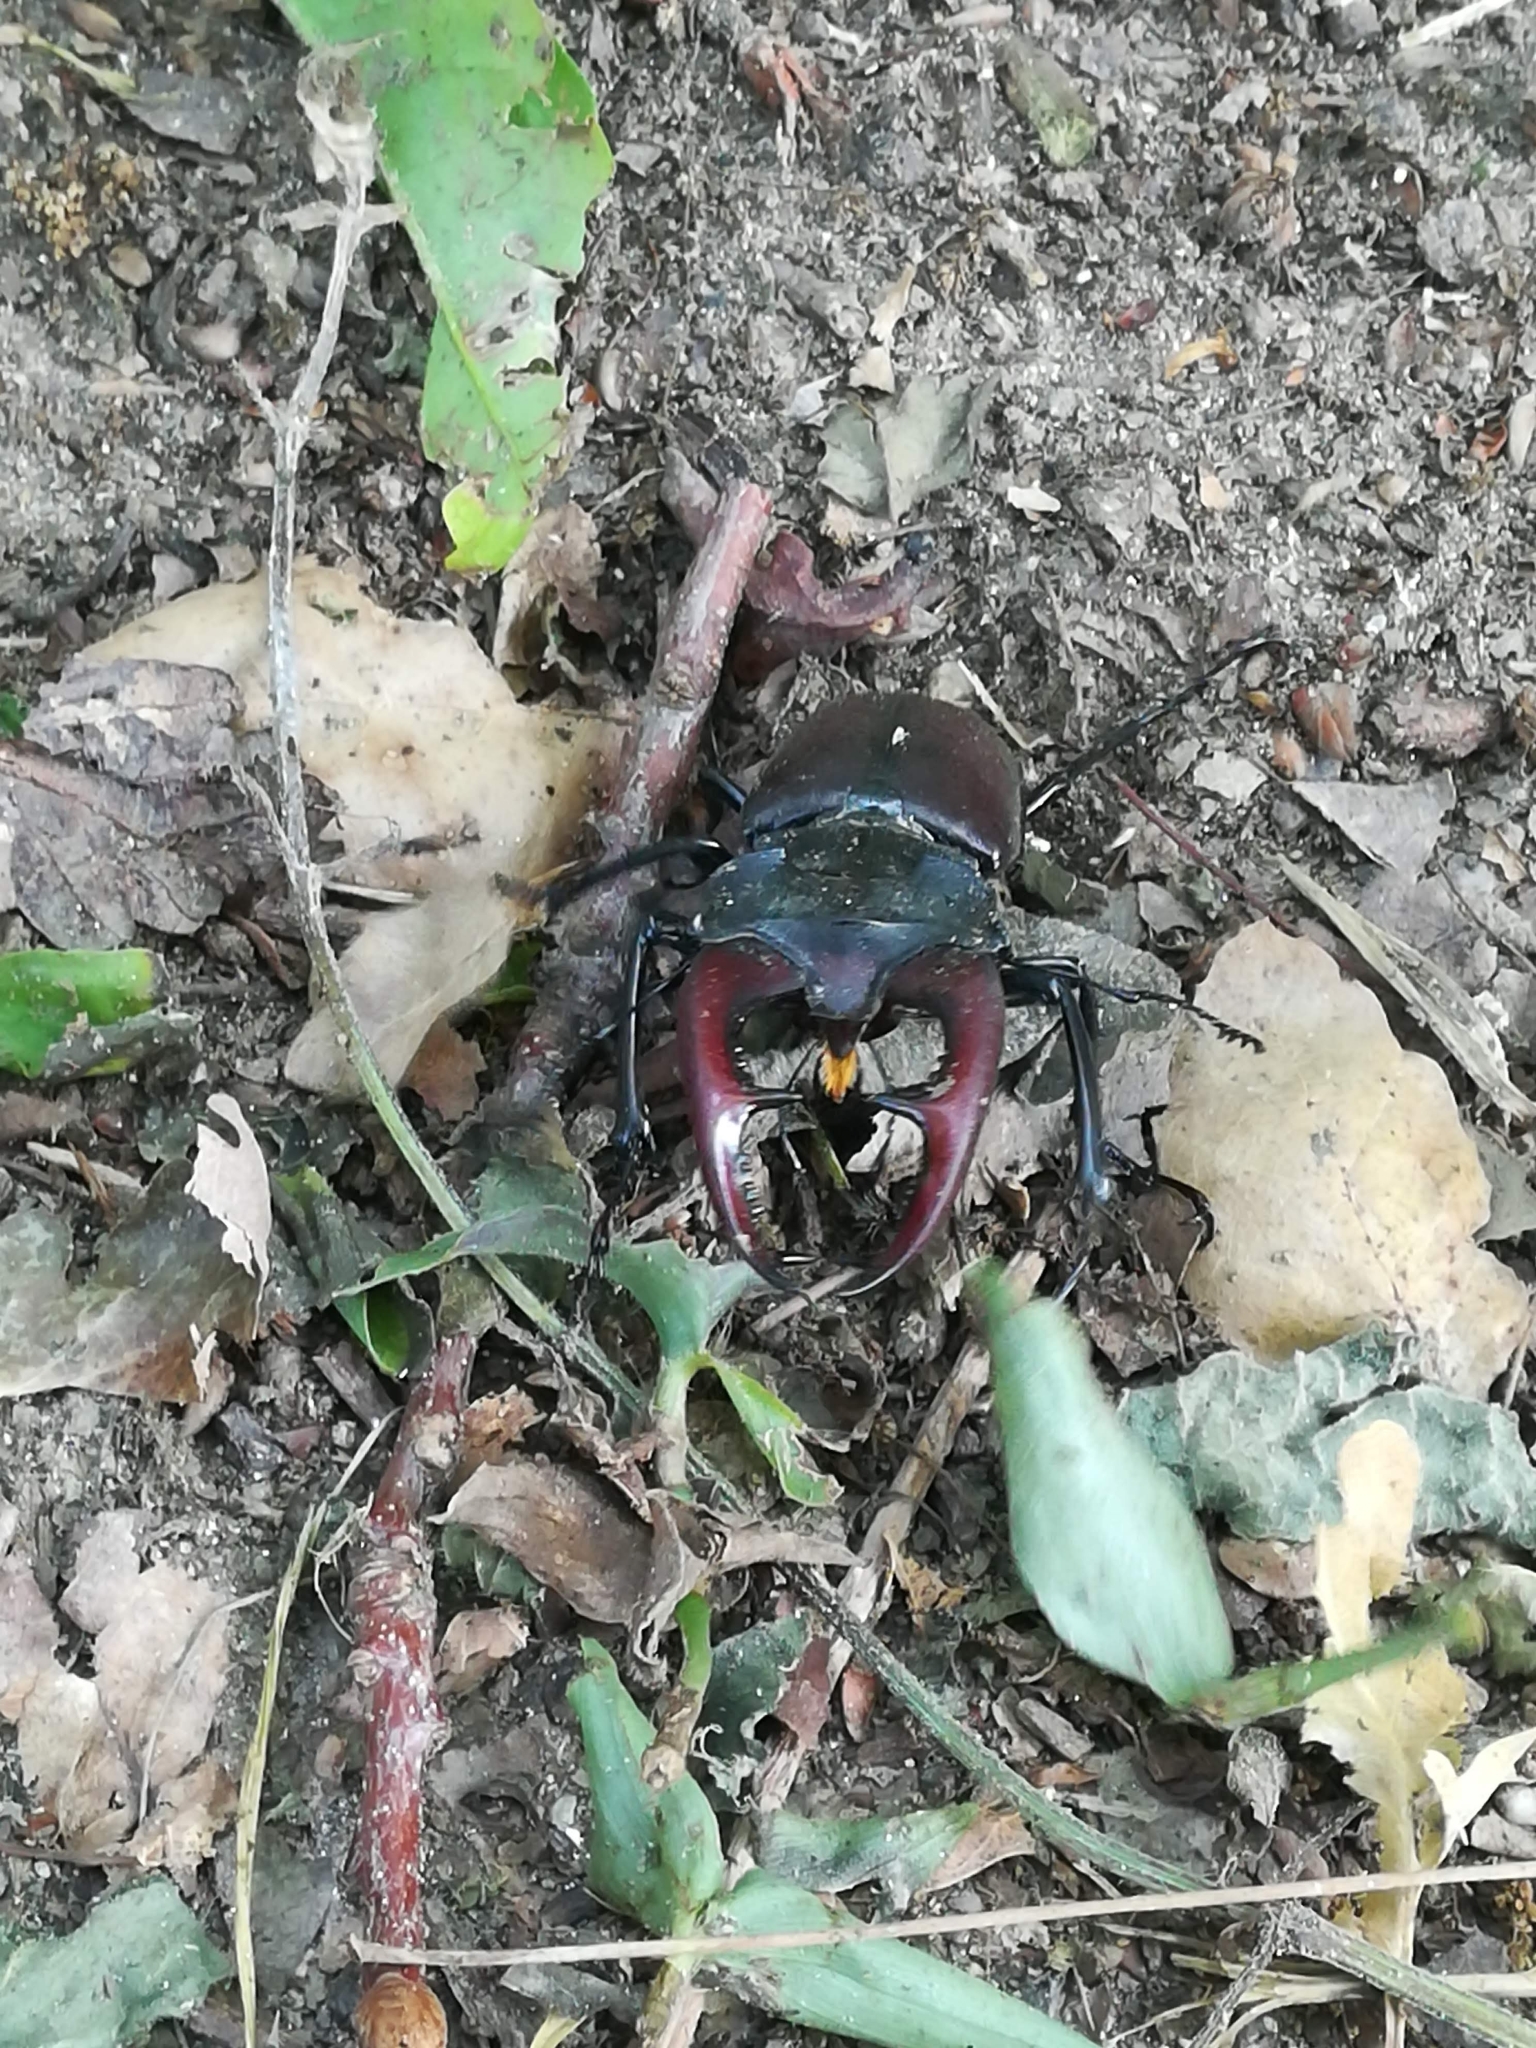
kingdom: Animalia
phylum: Arthropoda
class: Insecta
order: Coleoptera
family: Lucanidae
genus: Lucanus
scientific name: Lucanus cervus
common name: Stag beetle
